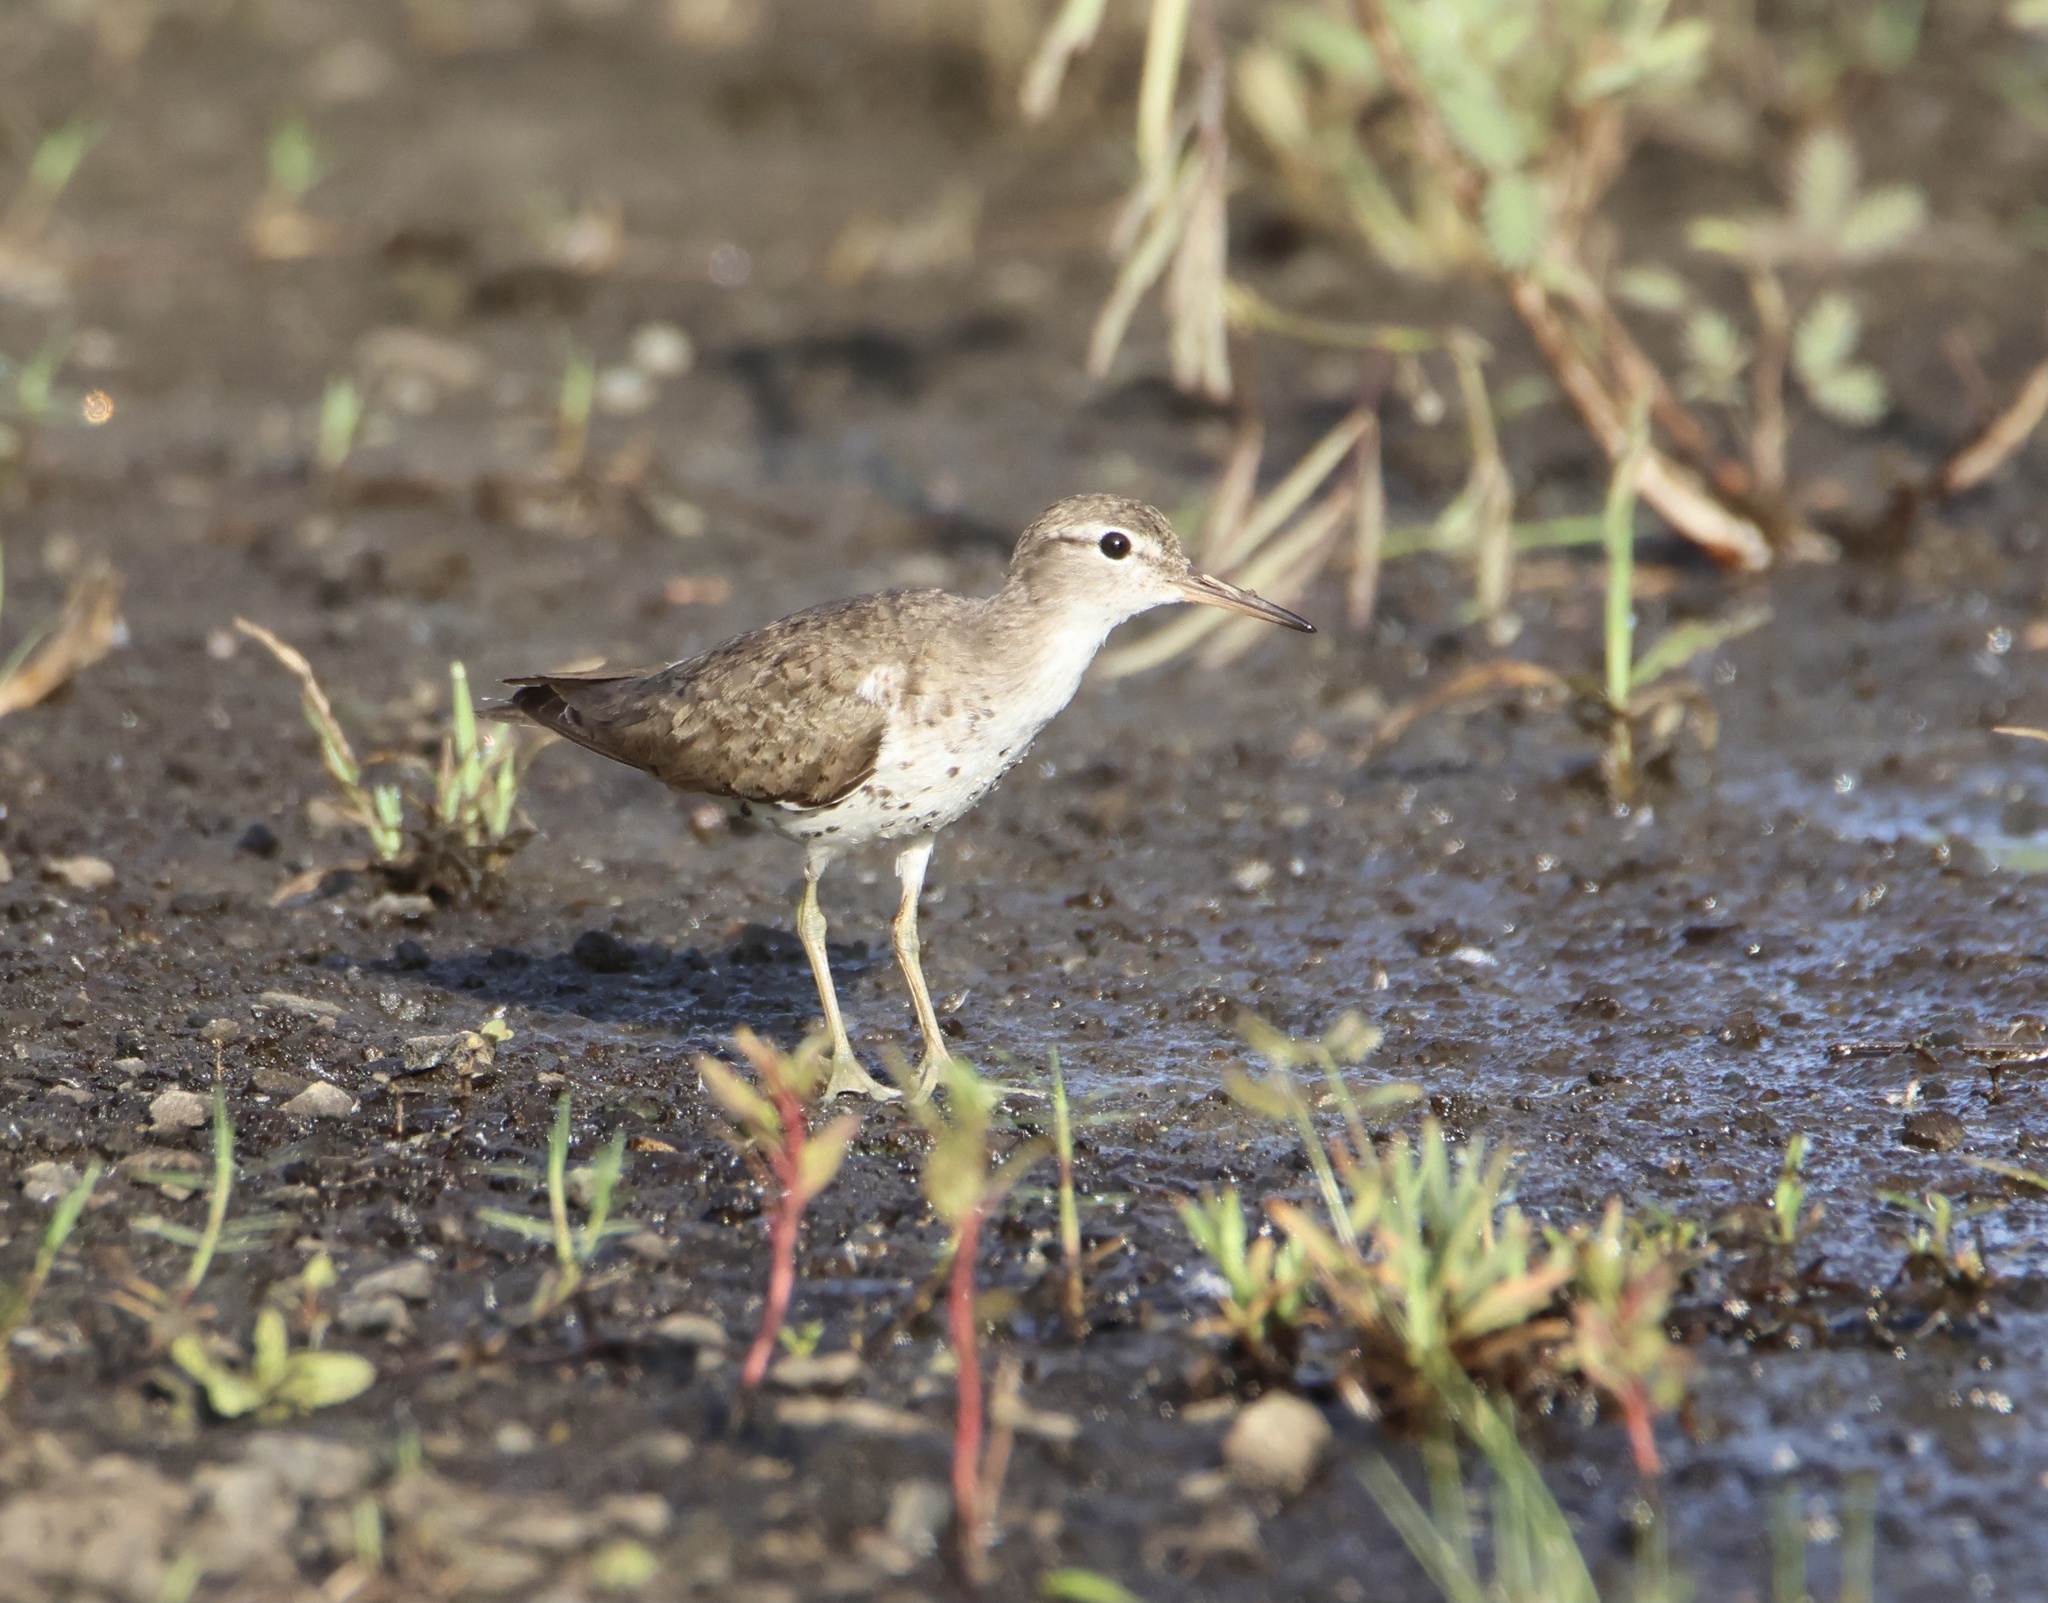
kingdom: Animalia
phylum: Chordata
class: Aves
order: Charadriiformes
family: Scolopacidae
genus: Actitis
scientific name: Actitis macularius
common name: Spotted sandpiper
